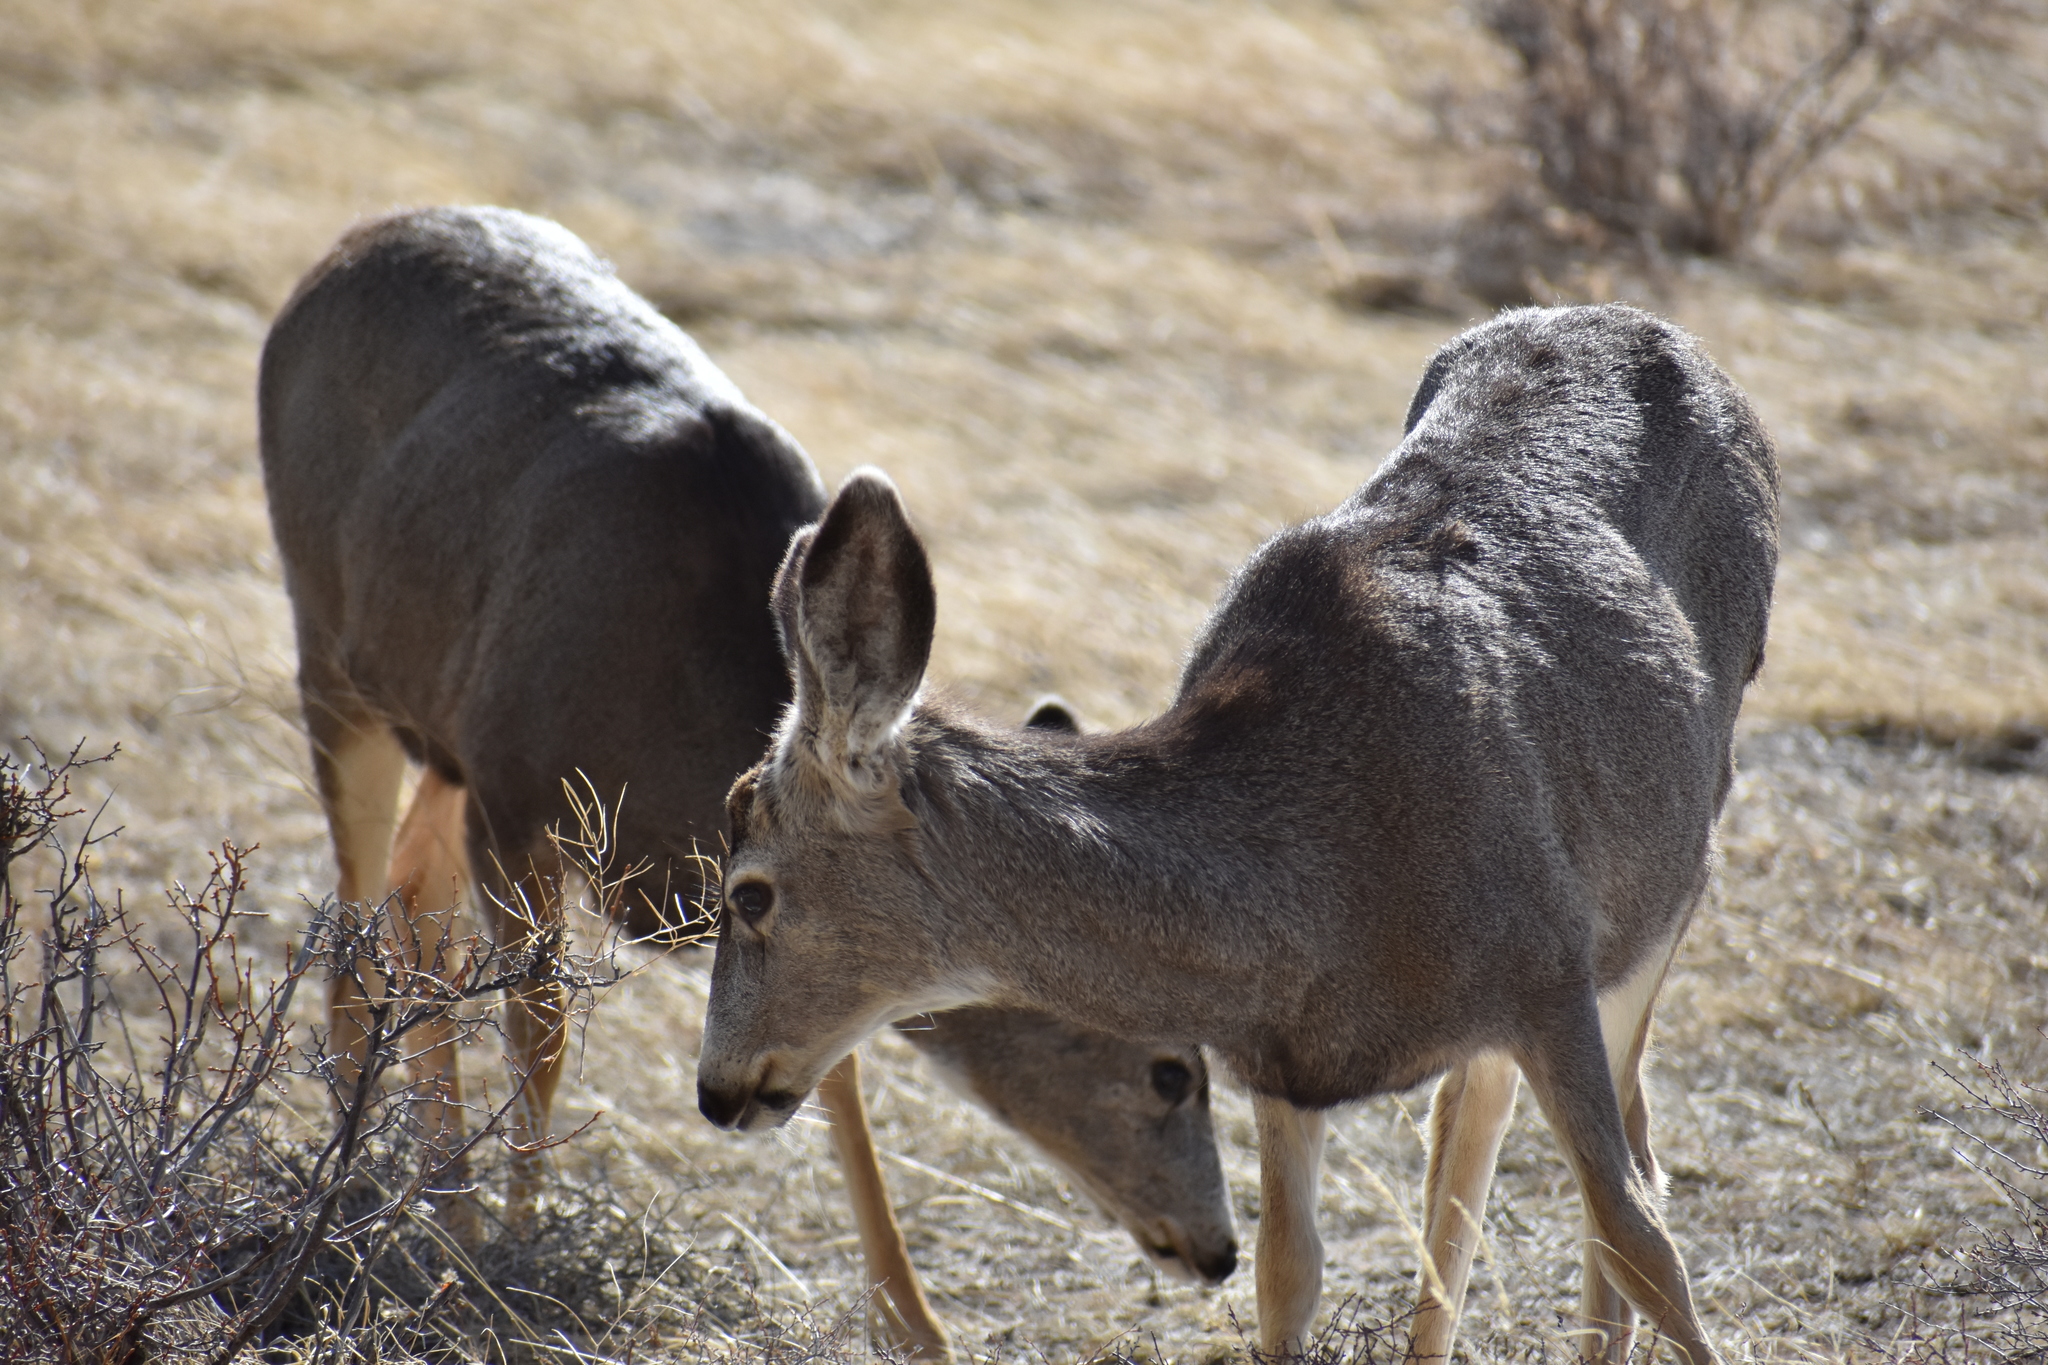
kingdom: Animalia
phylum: Chordata
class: Mammalia
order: Artiodactyla
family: Cervidae
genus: Odocoileus
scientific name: Odocoileus hemionus
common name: Mule deer
